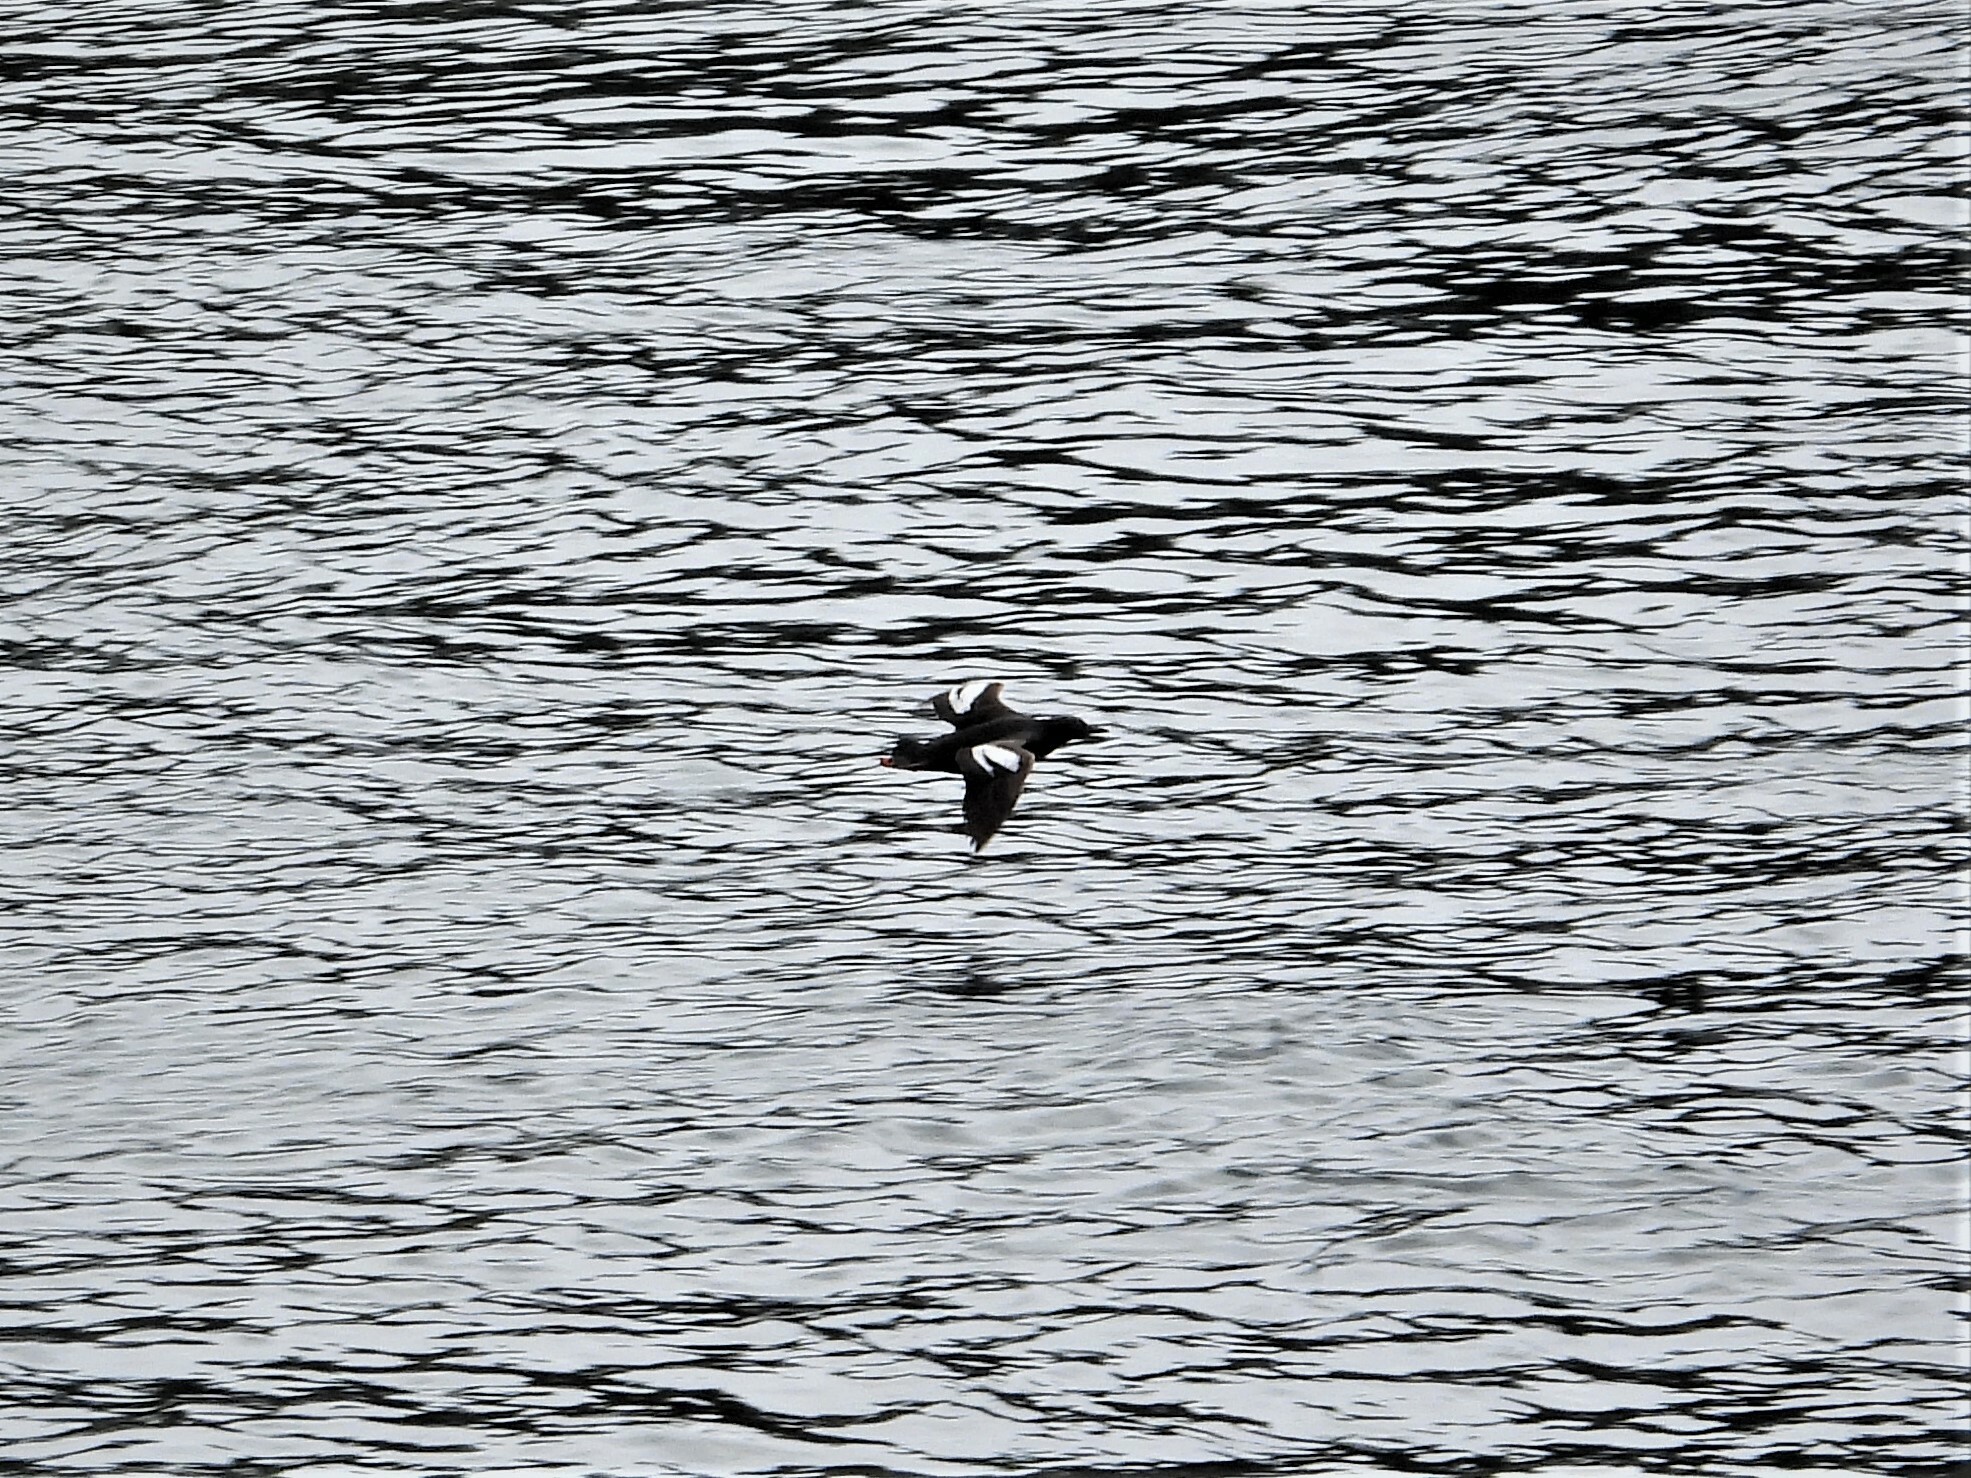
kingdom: Animalia
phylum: Chordata
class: Aves
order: Charadriiformes
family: Alcidae
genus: Cepphus
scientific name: Cepphus columba
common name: Pigeon guillemot
